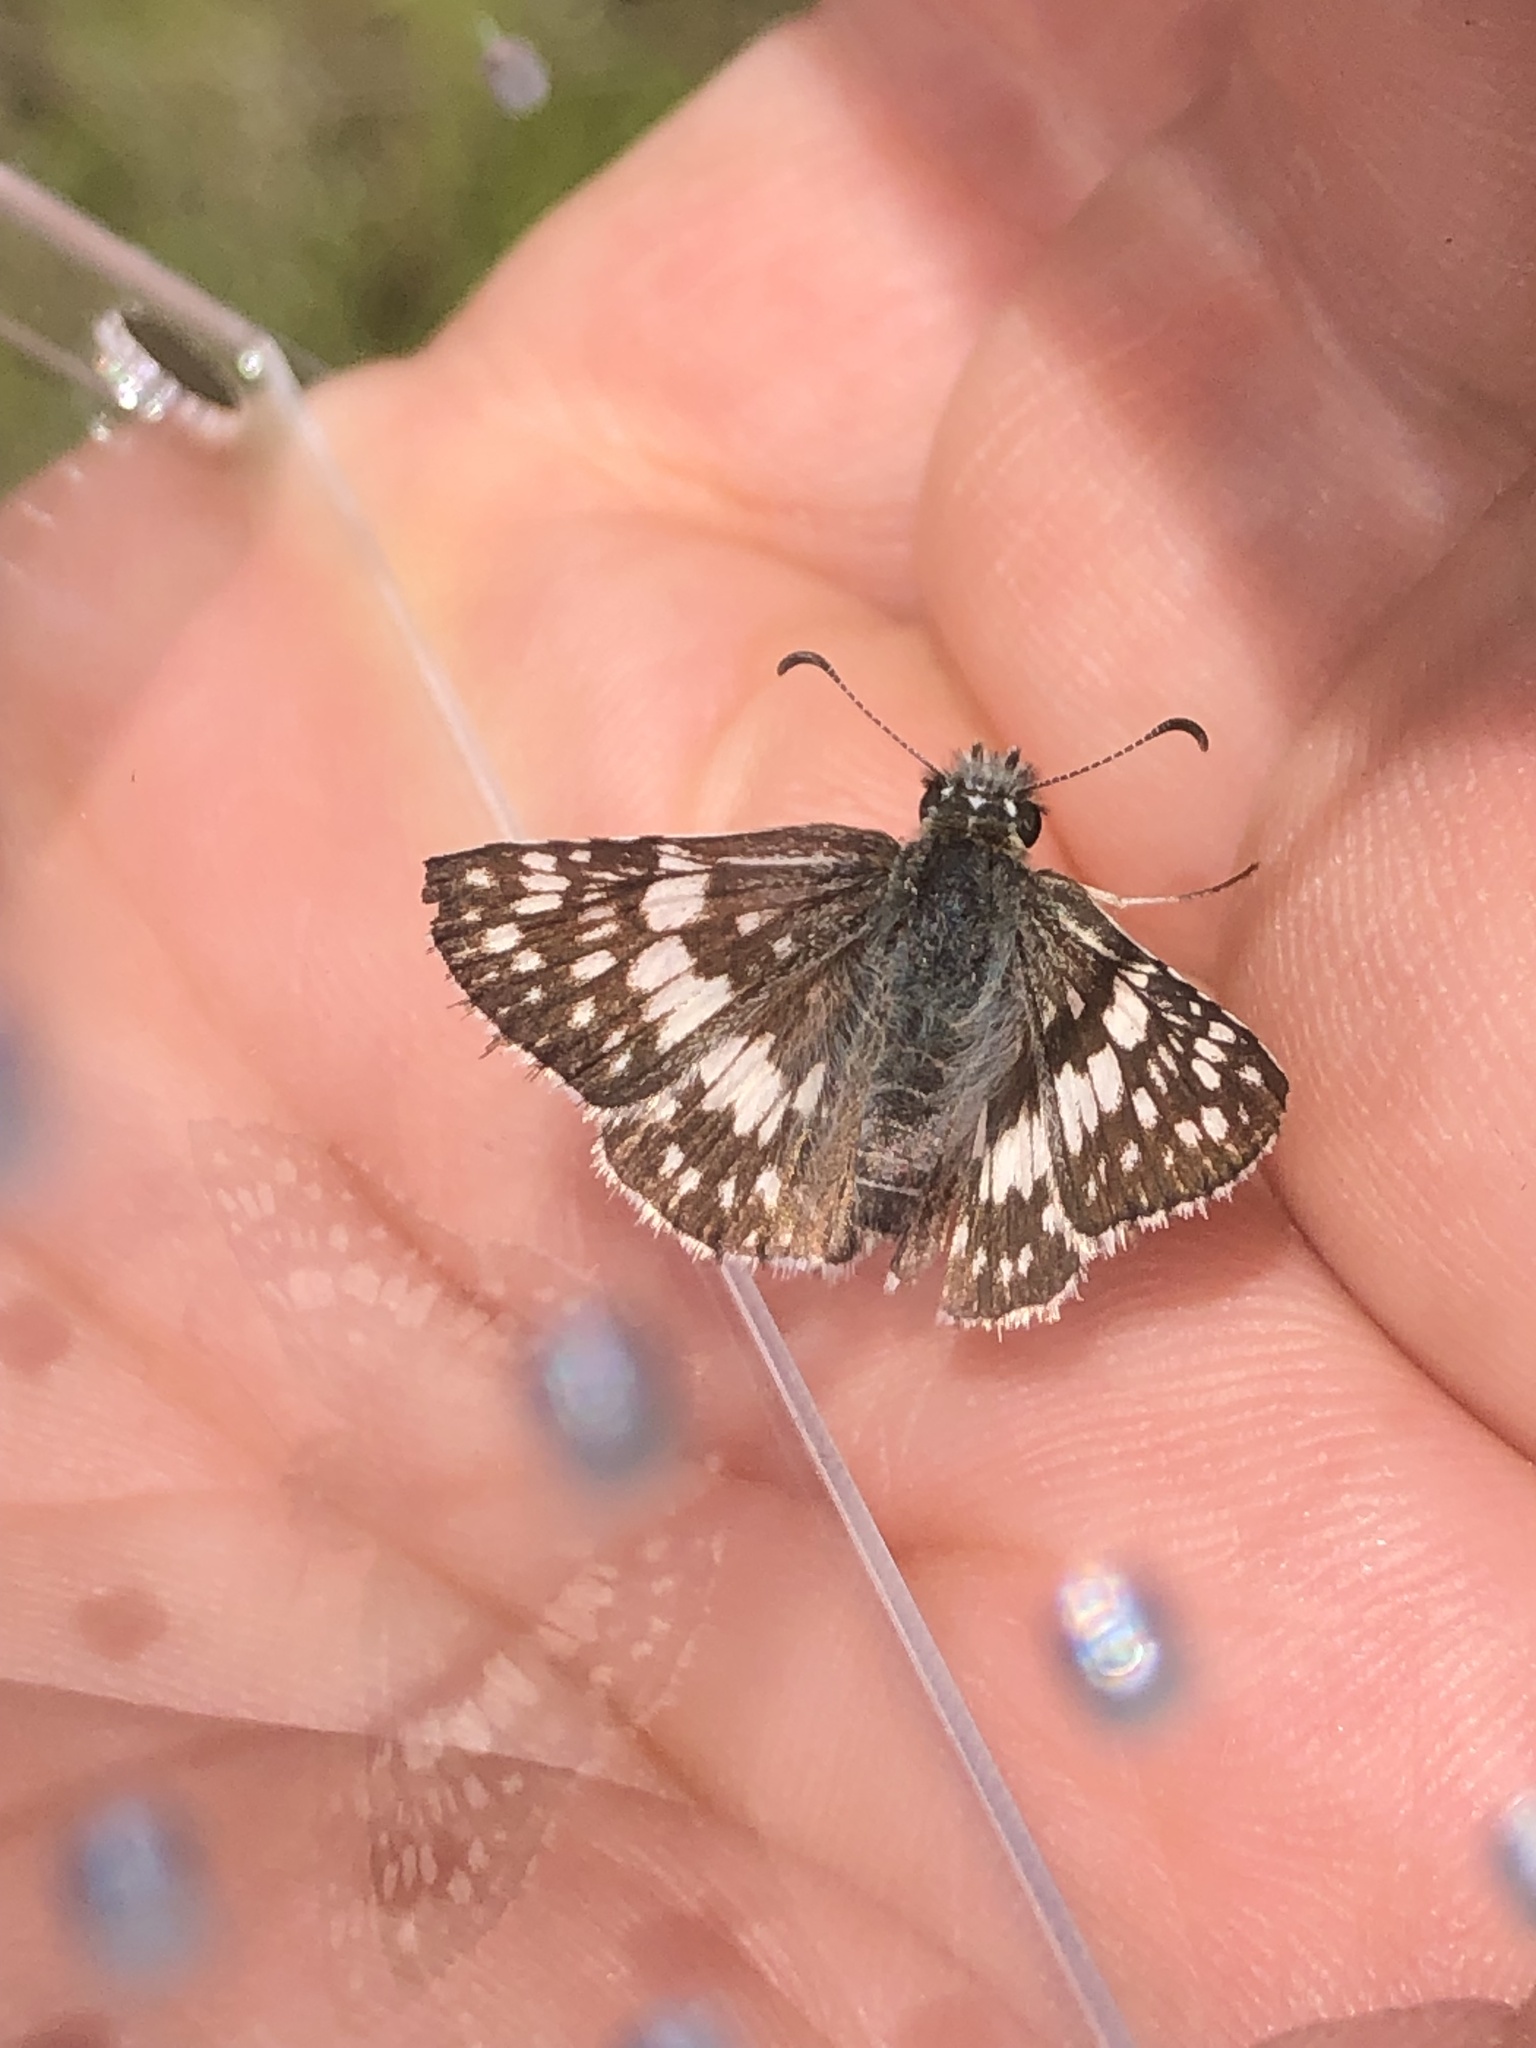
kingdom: Animalia
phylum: Arthropoda
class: Insecta
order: Lepidoptera
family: Hesperiidae
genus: Burnsius
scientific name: Burnsius albezens
